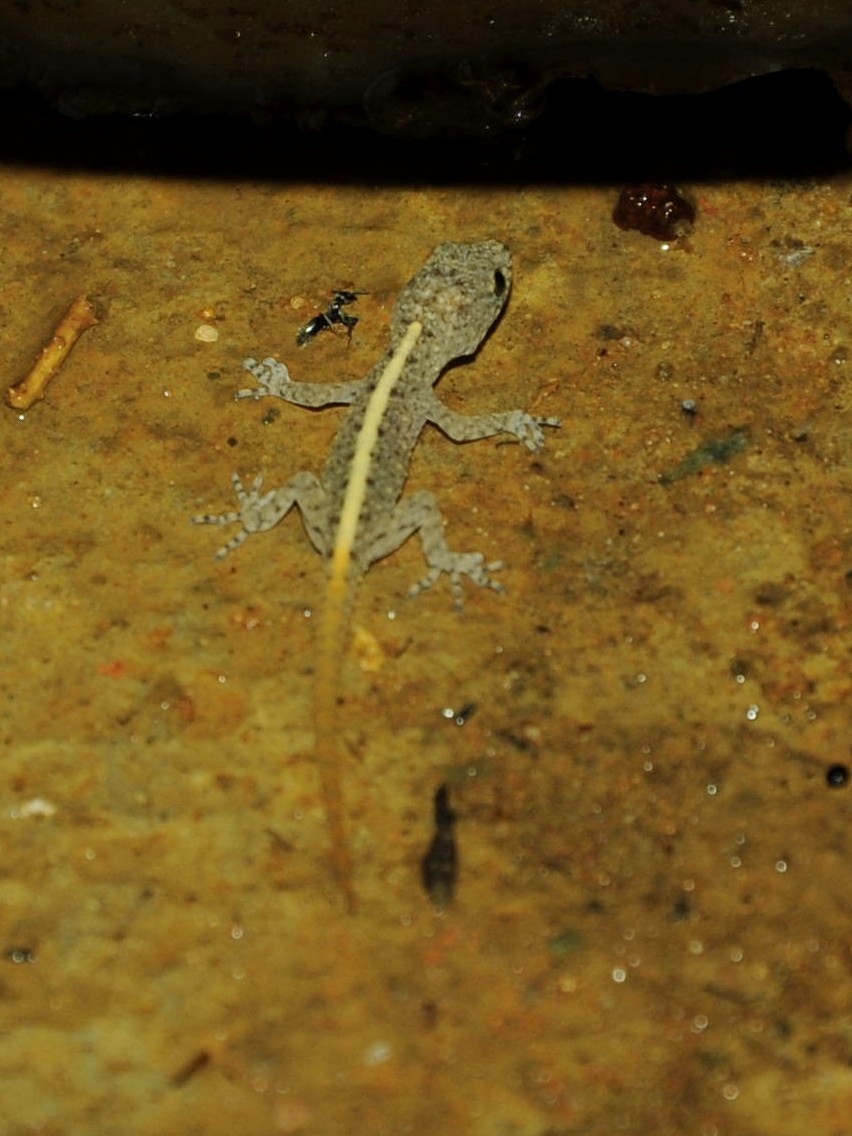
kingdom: Animalia
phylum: Chordata
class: Squamata
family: Gekkonidae
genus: Cnemaspis
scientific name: Cnemaspis mysoriensis
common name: Mysore day gecko
